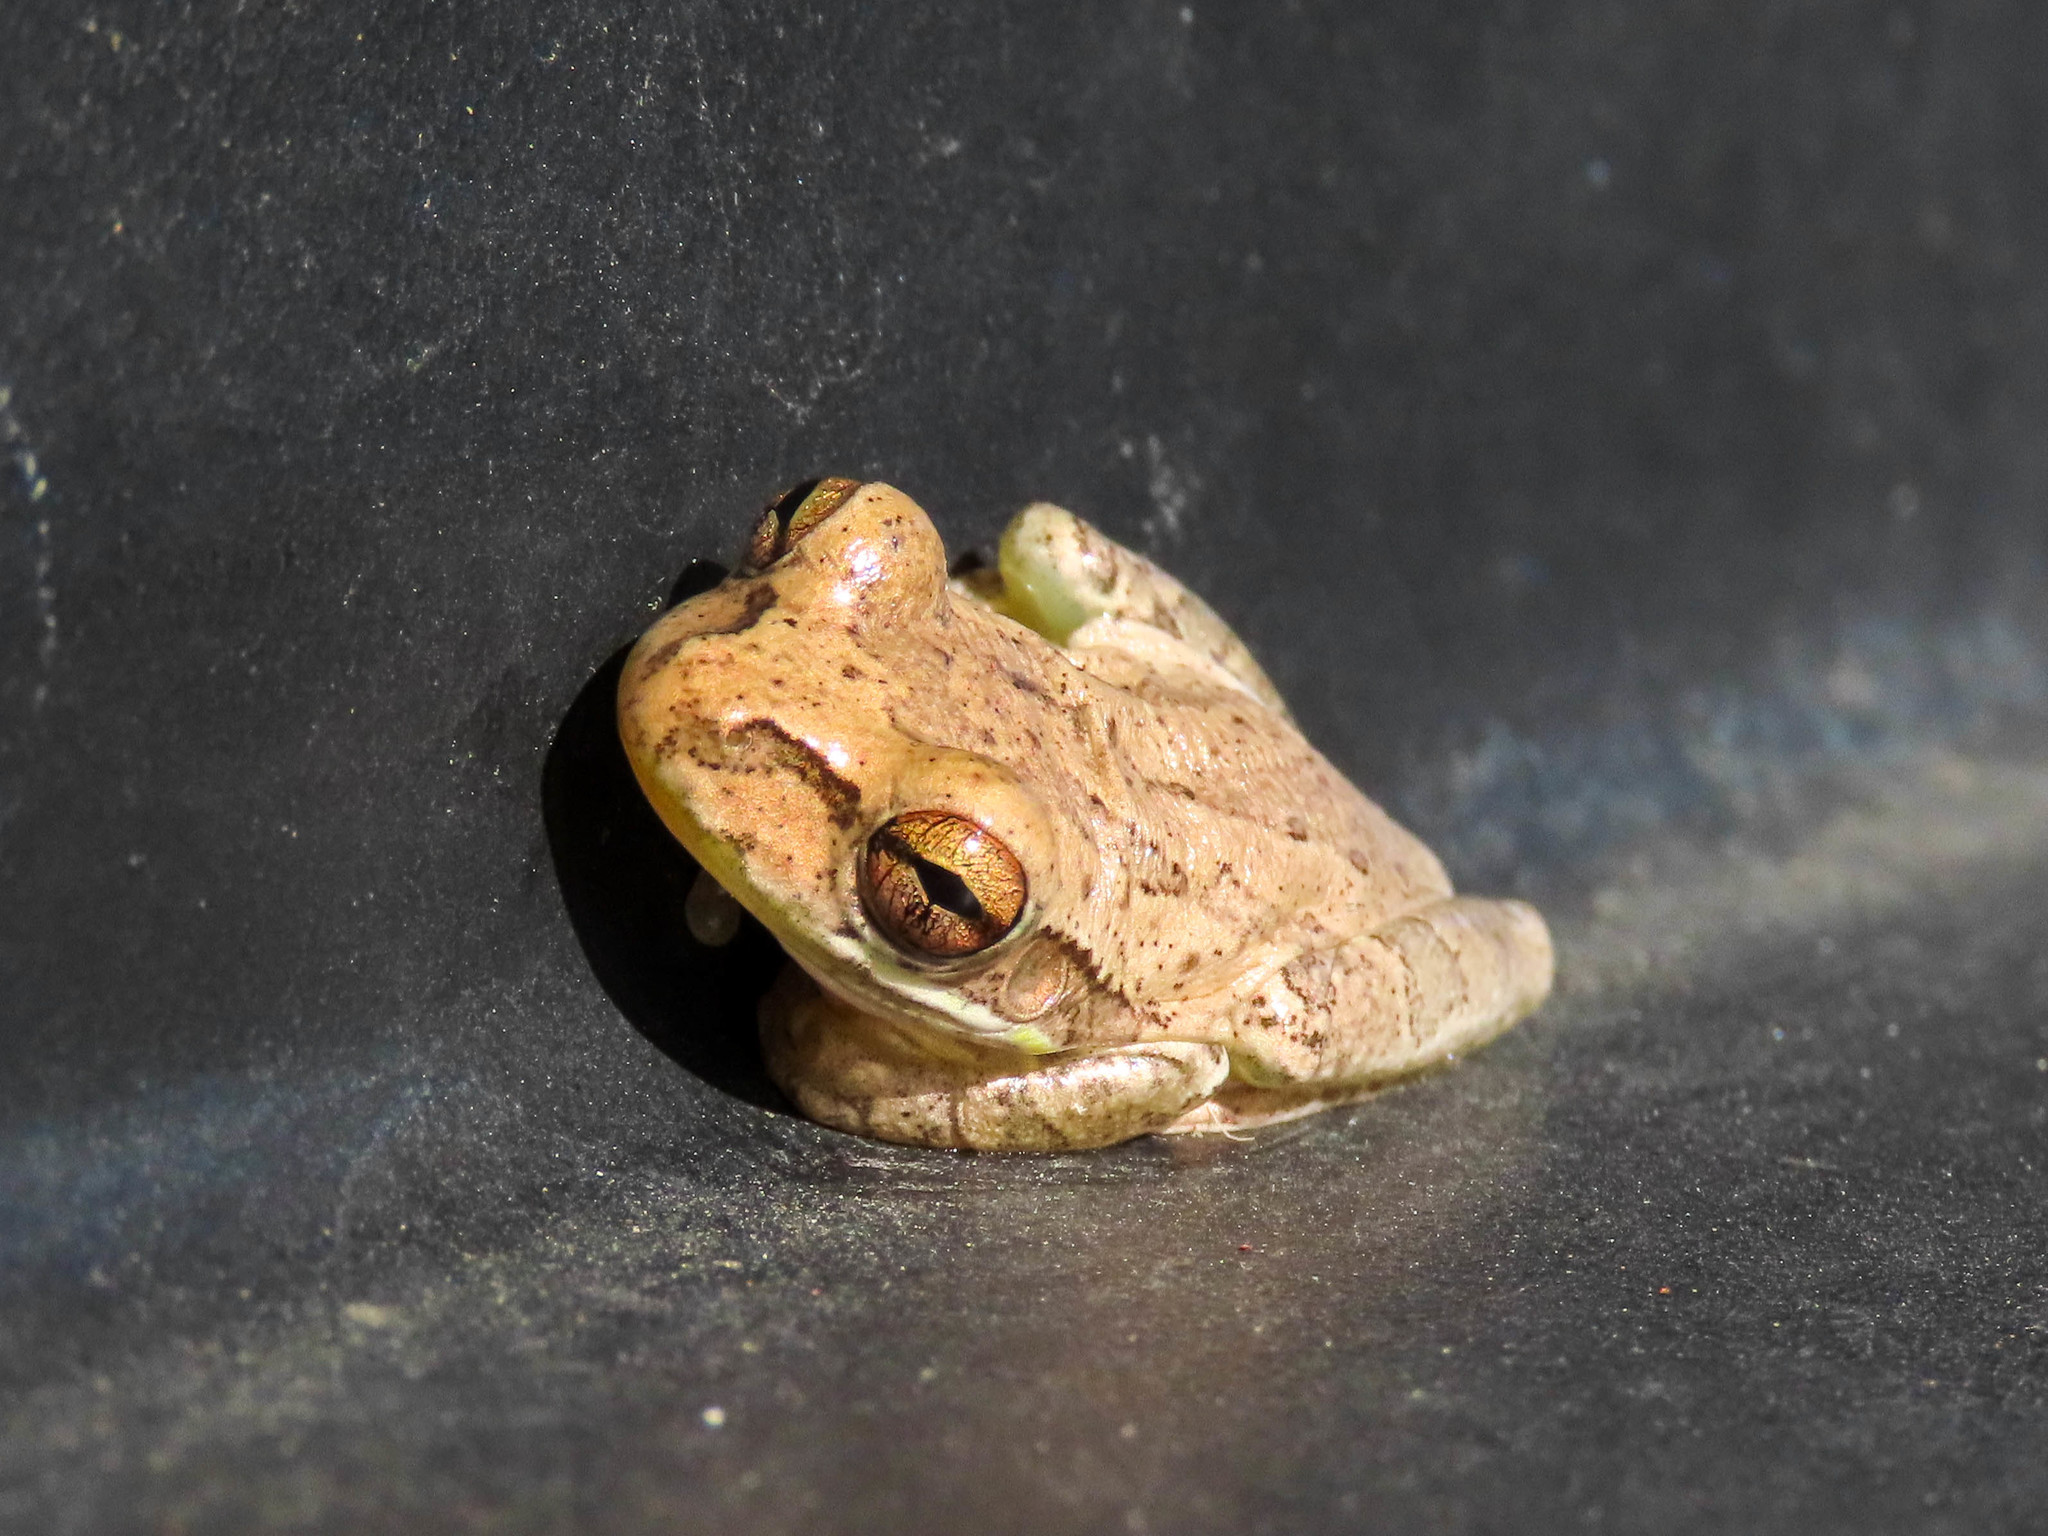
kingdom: Animalia
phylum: Chordata
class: Amphibia
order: Anura
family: Hylidae
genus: Osteopilus
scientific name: Osteopilus septentrionalis
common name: Cuban treefrog
